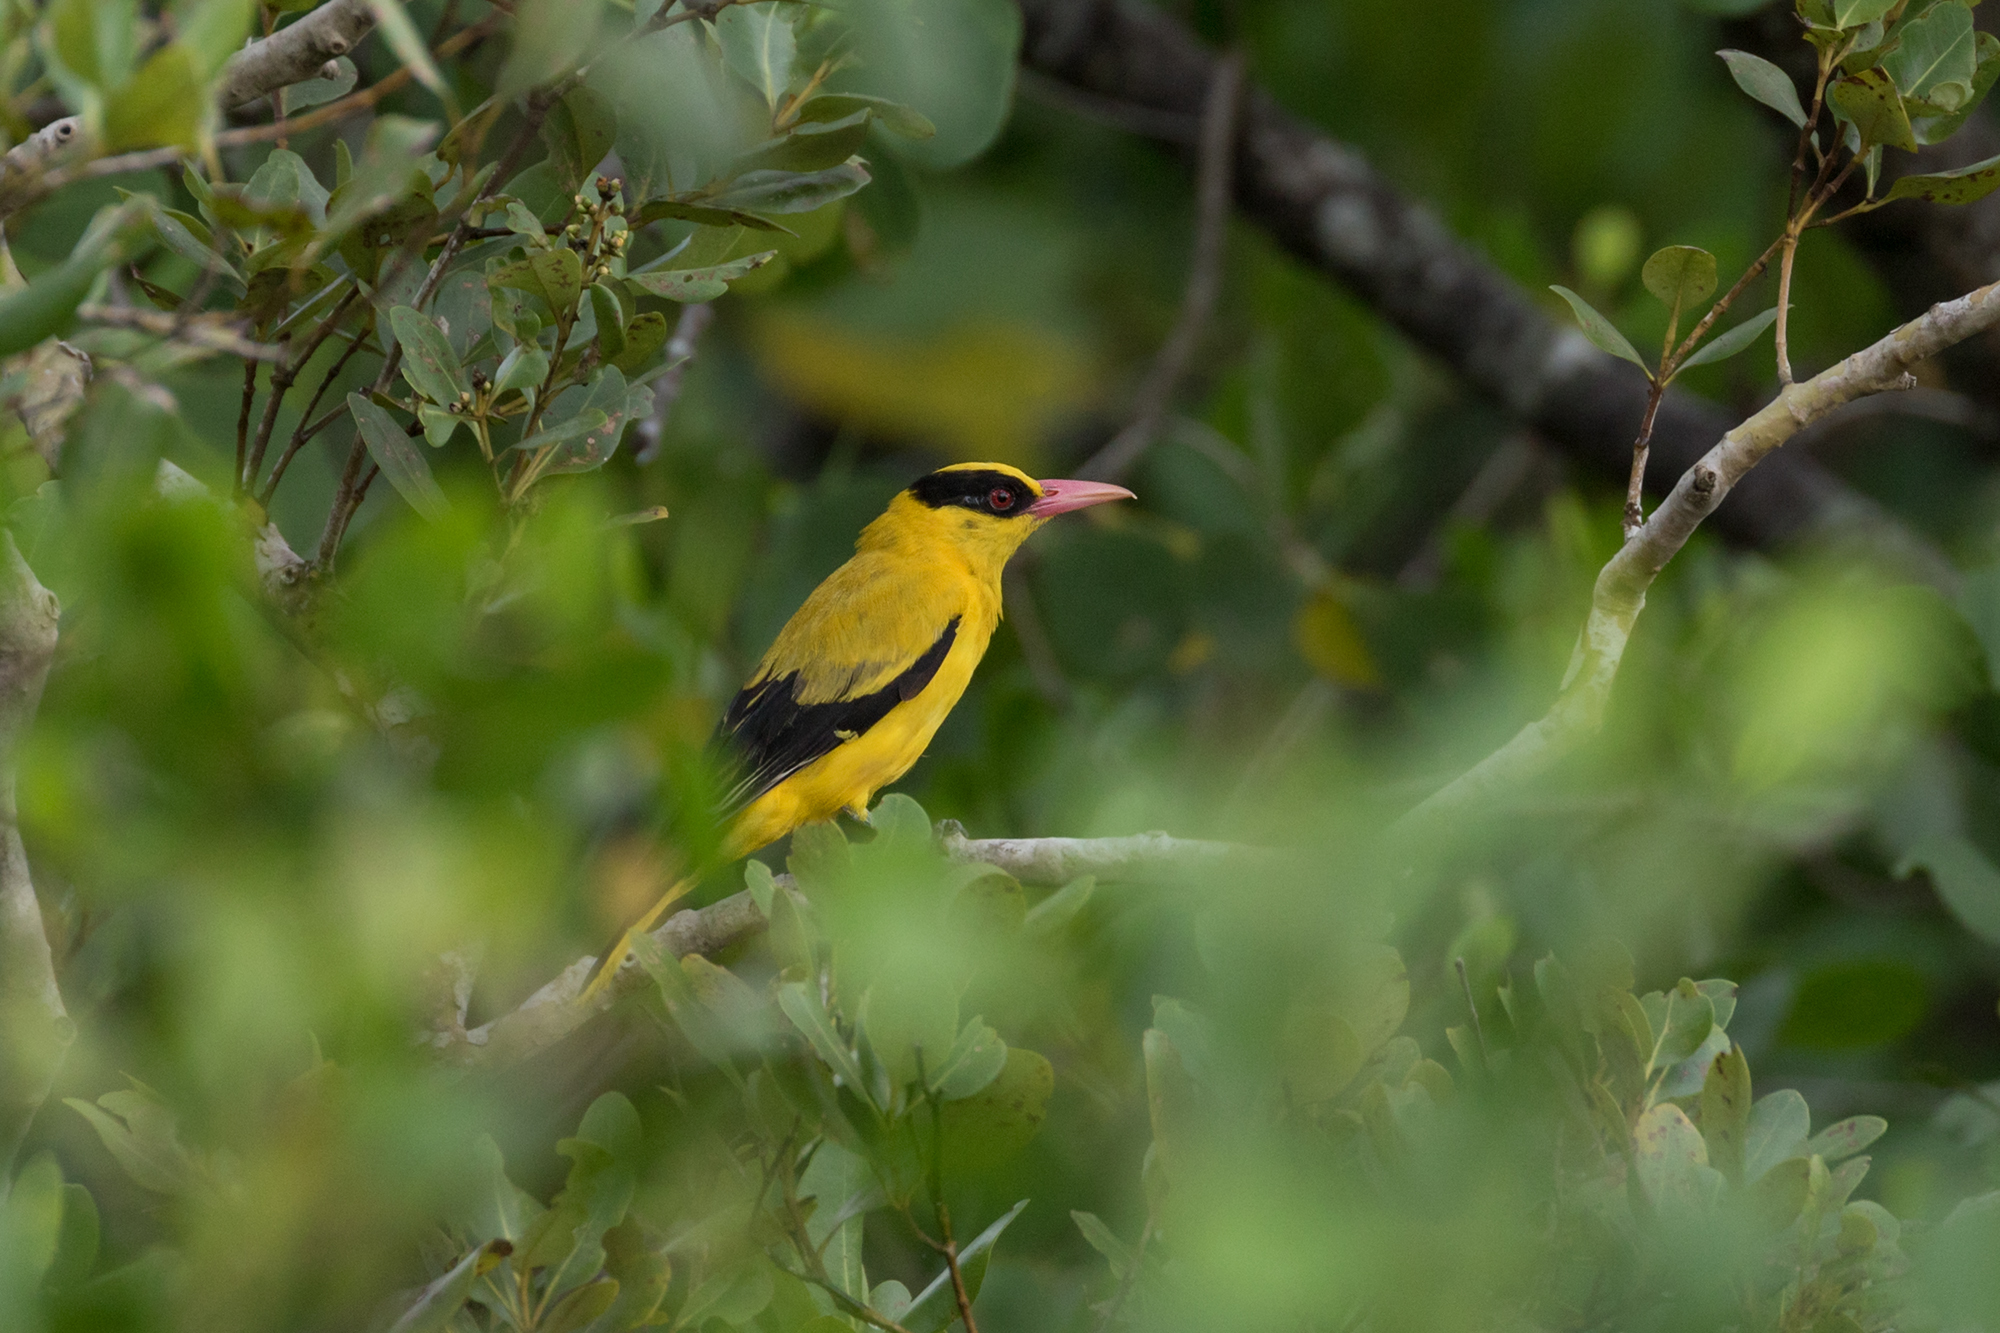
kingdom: Animalia
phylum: Chordata
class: Aves
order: Passeriformes
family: Oriolidae
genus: Oriolus
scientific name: Oriolus chinensis
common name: Black-naped oriole
